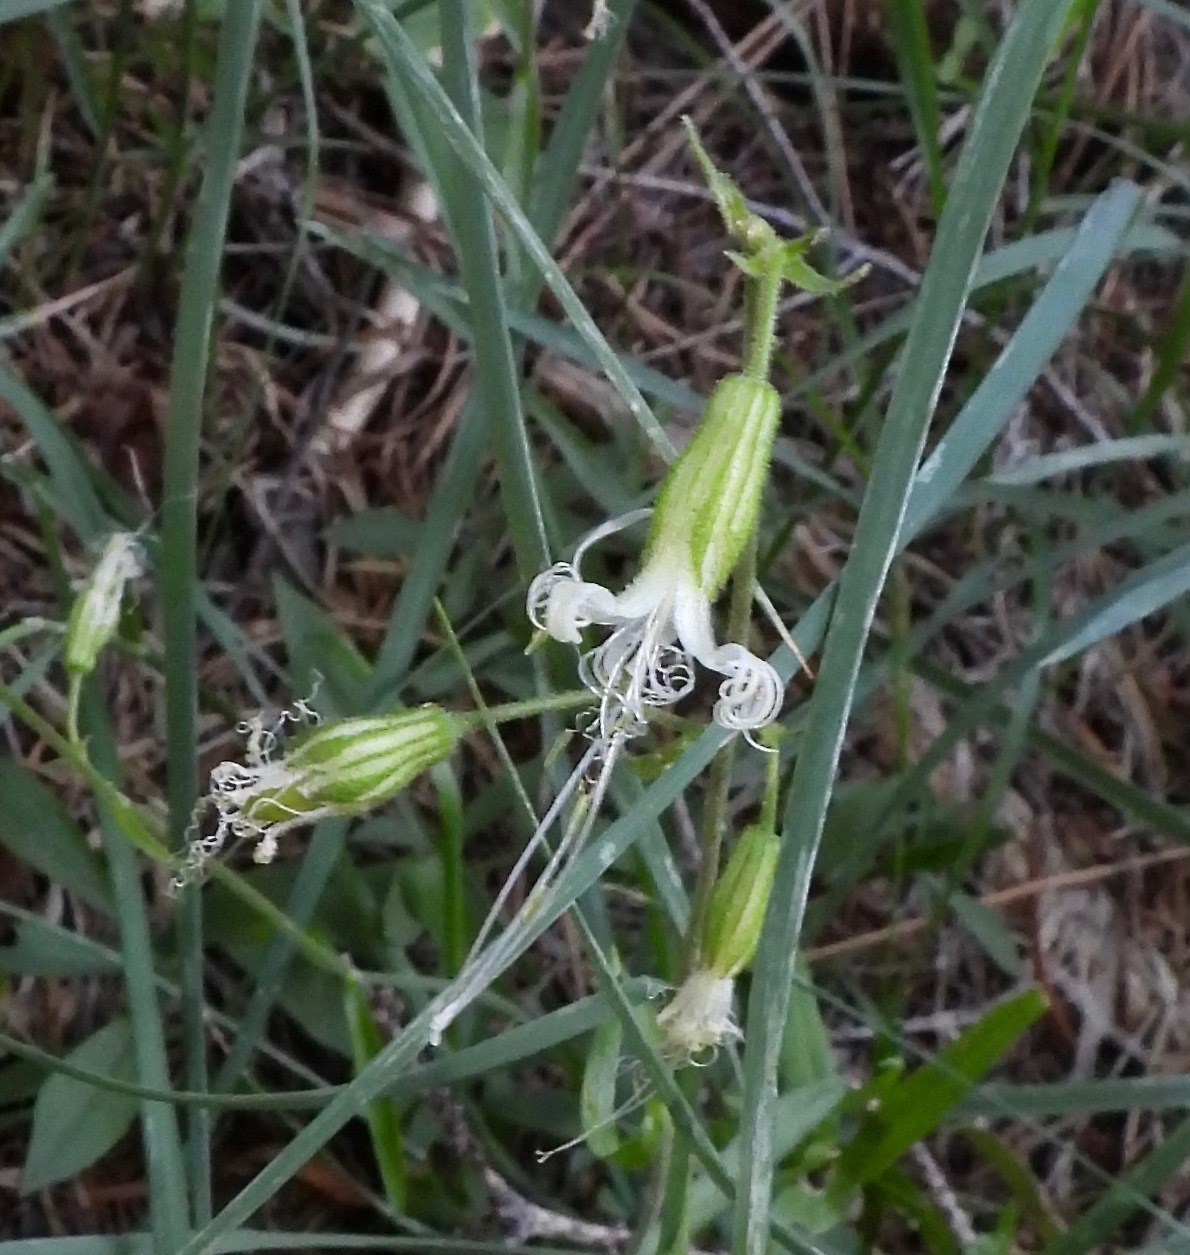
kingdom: Plantae
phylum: Tracheophyta
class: Magnoliopsida
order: Caryophyllales
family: Caryophyllaceae
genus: Silene
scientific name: Silene lemmonii
